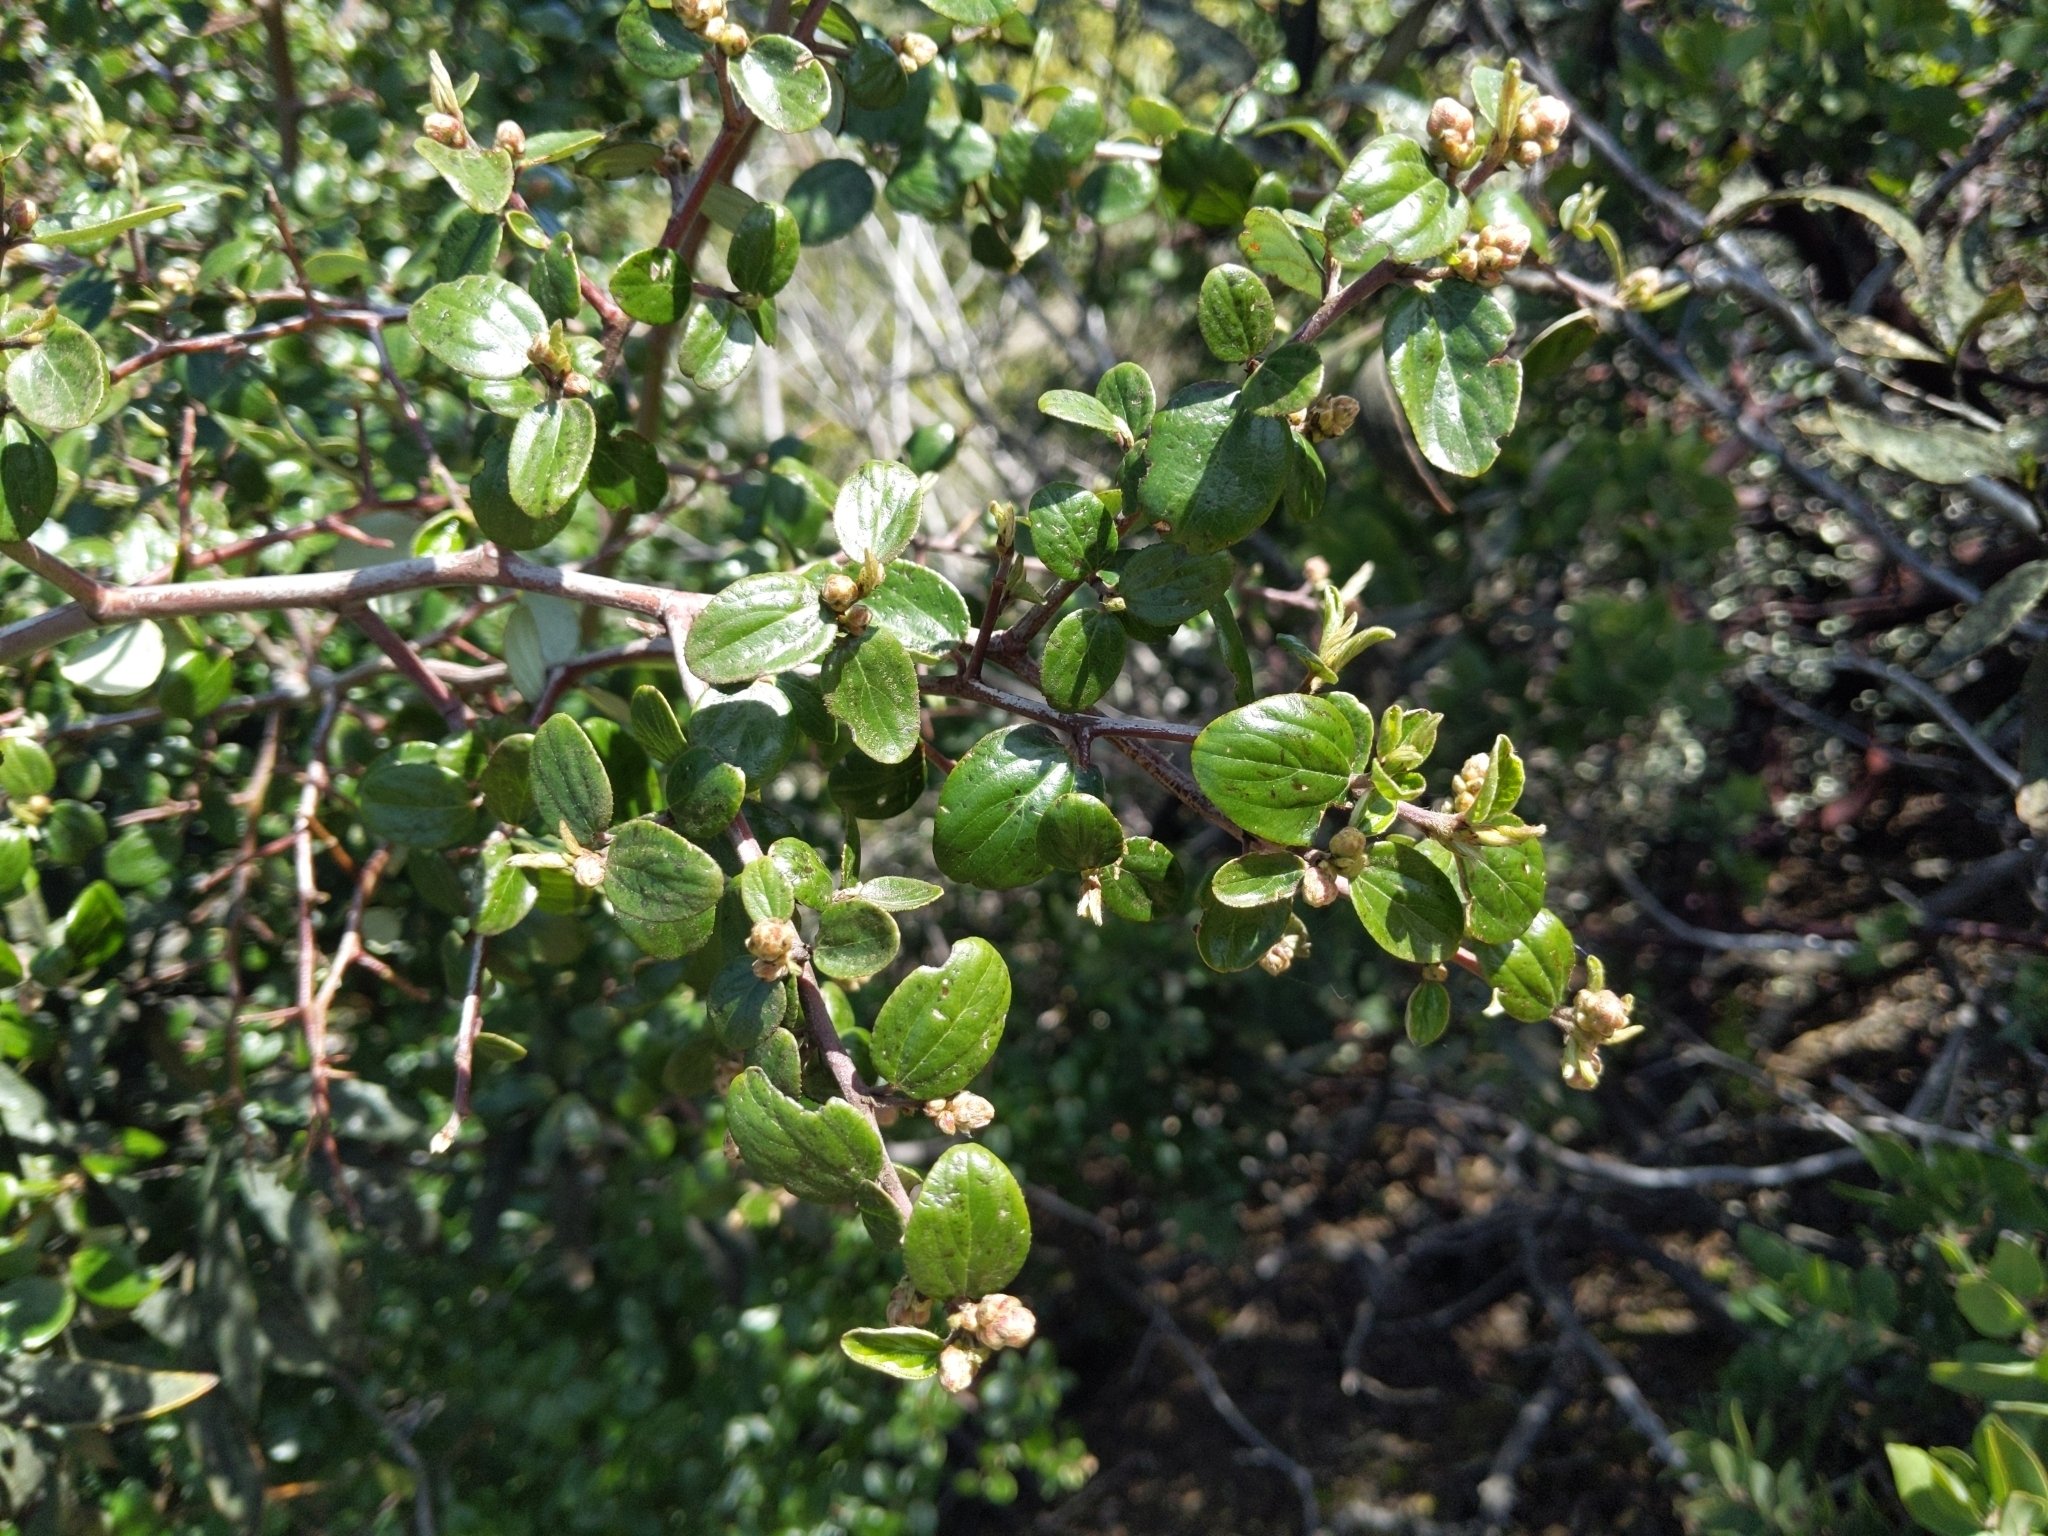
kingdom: Plantae
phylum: Tracheophyta
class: Magnoliopsida
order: Rosales
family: Rhamnaceae
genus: Ceanothus
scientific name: Ceanothus oliganthus
